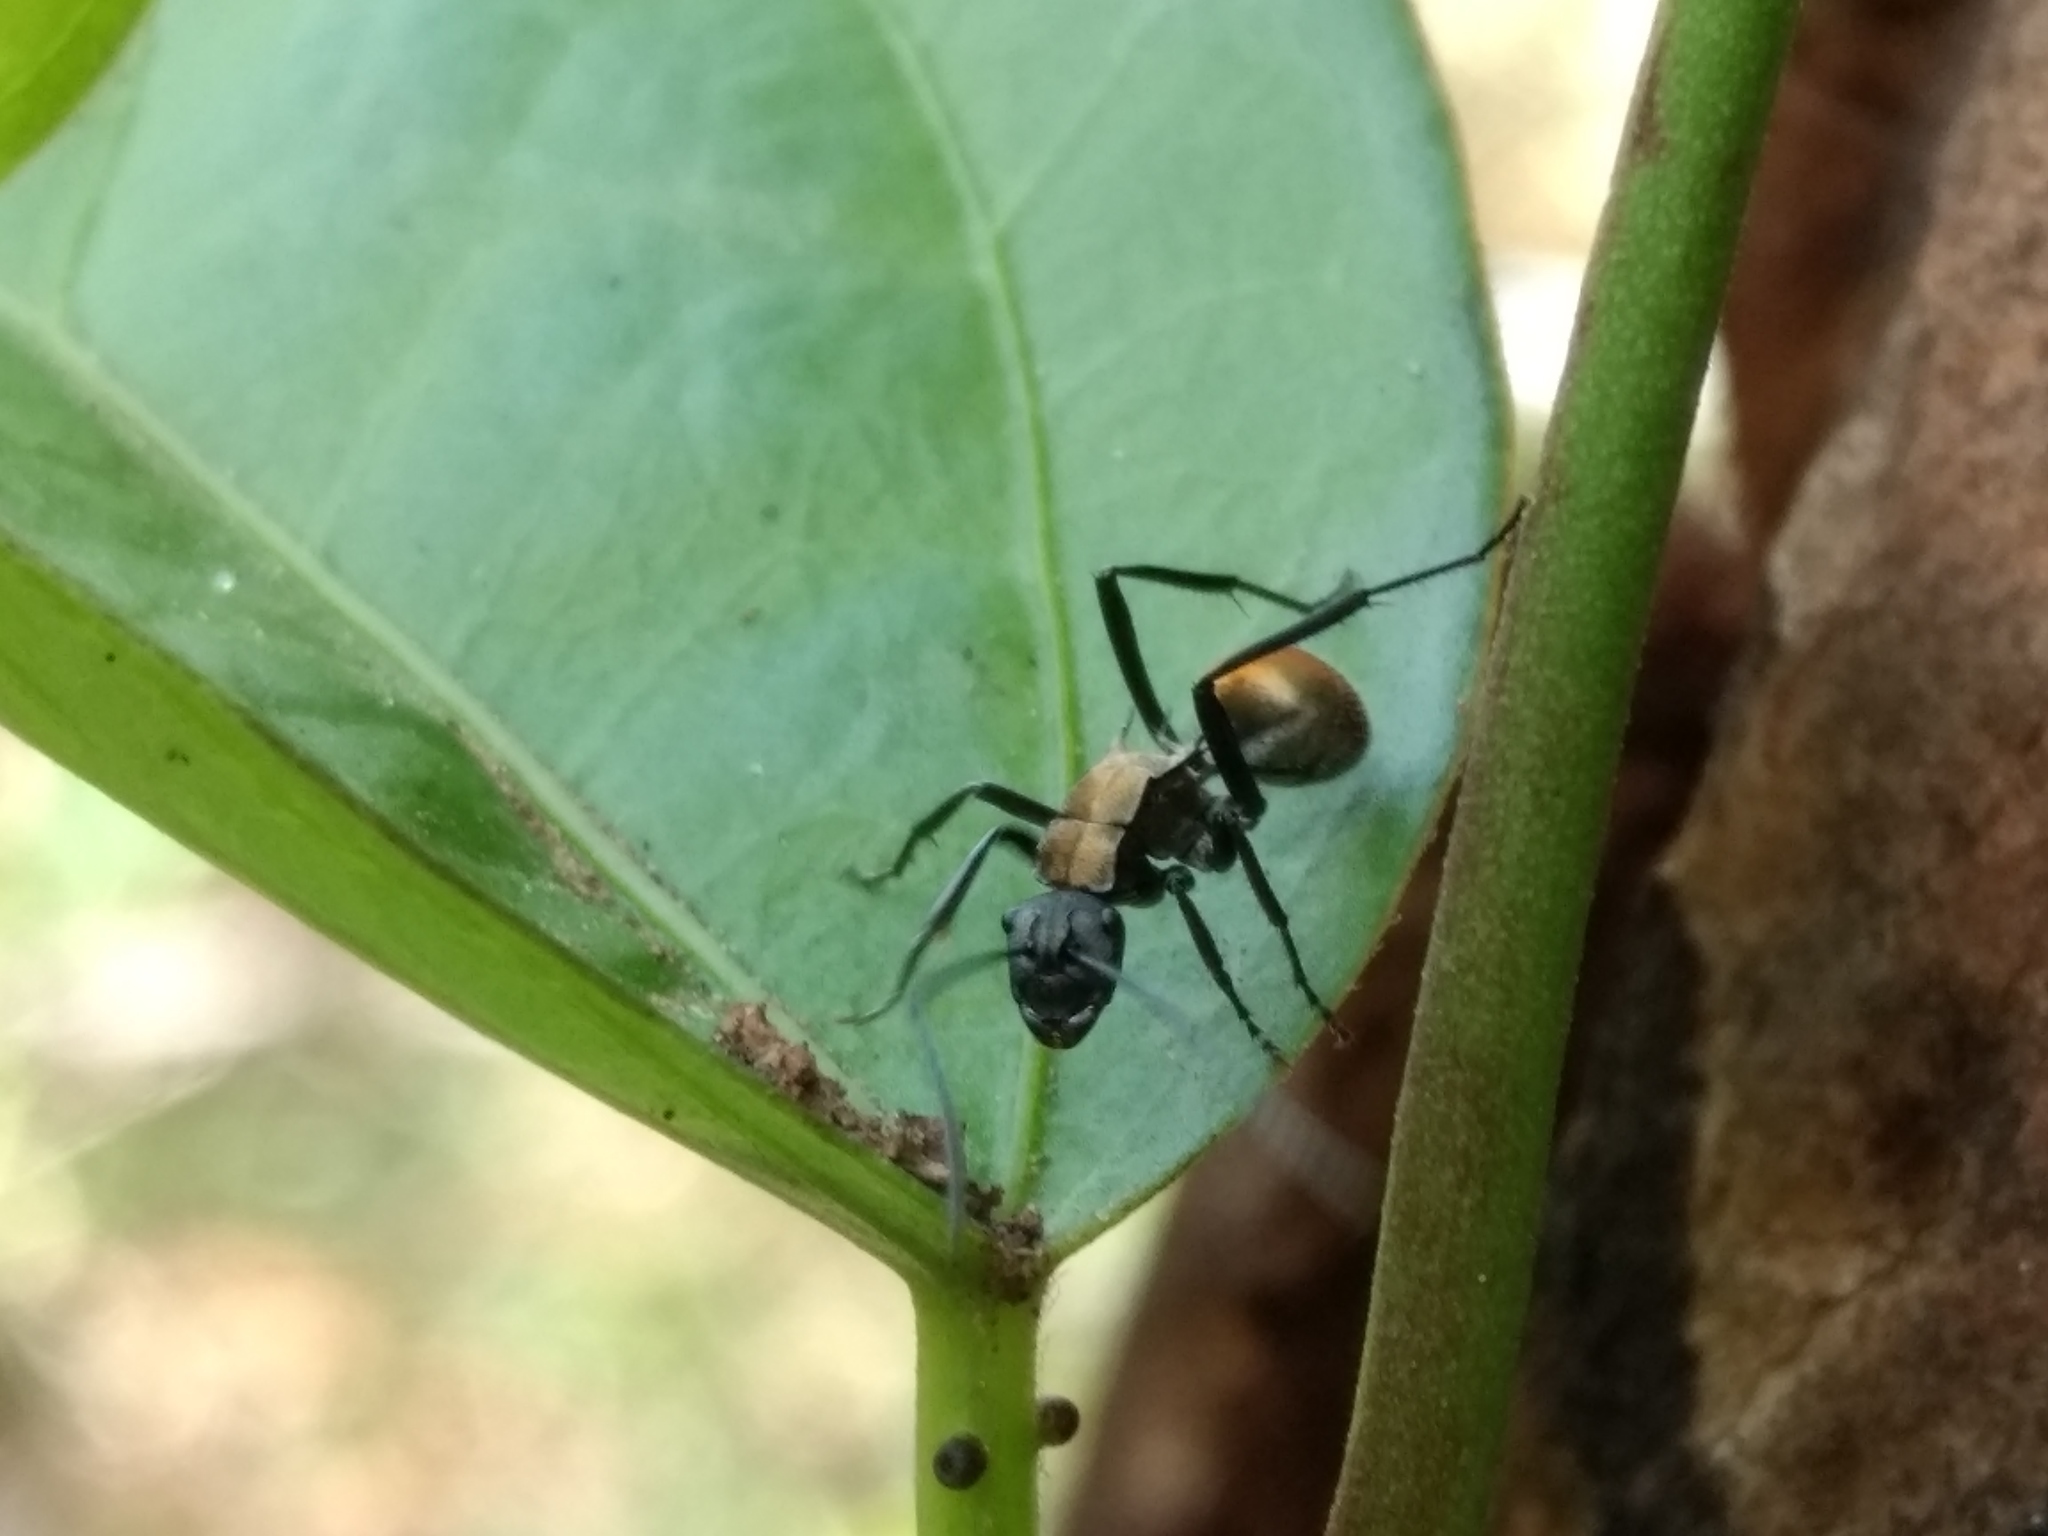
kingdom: Animalia
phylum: Arthropoda
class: Insecta
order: Hymenoptera
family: Formicidae
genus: Polyrhachis
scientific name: Polyrhachis ammon
